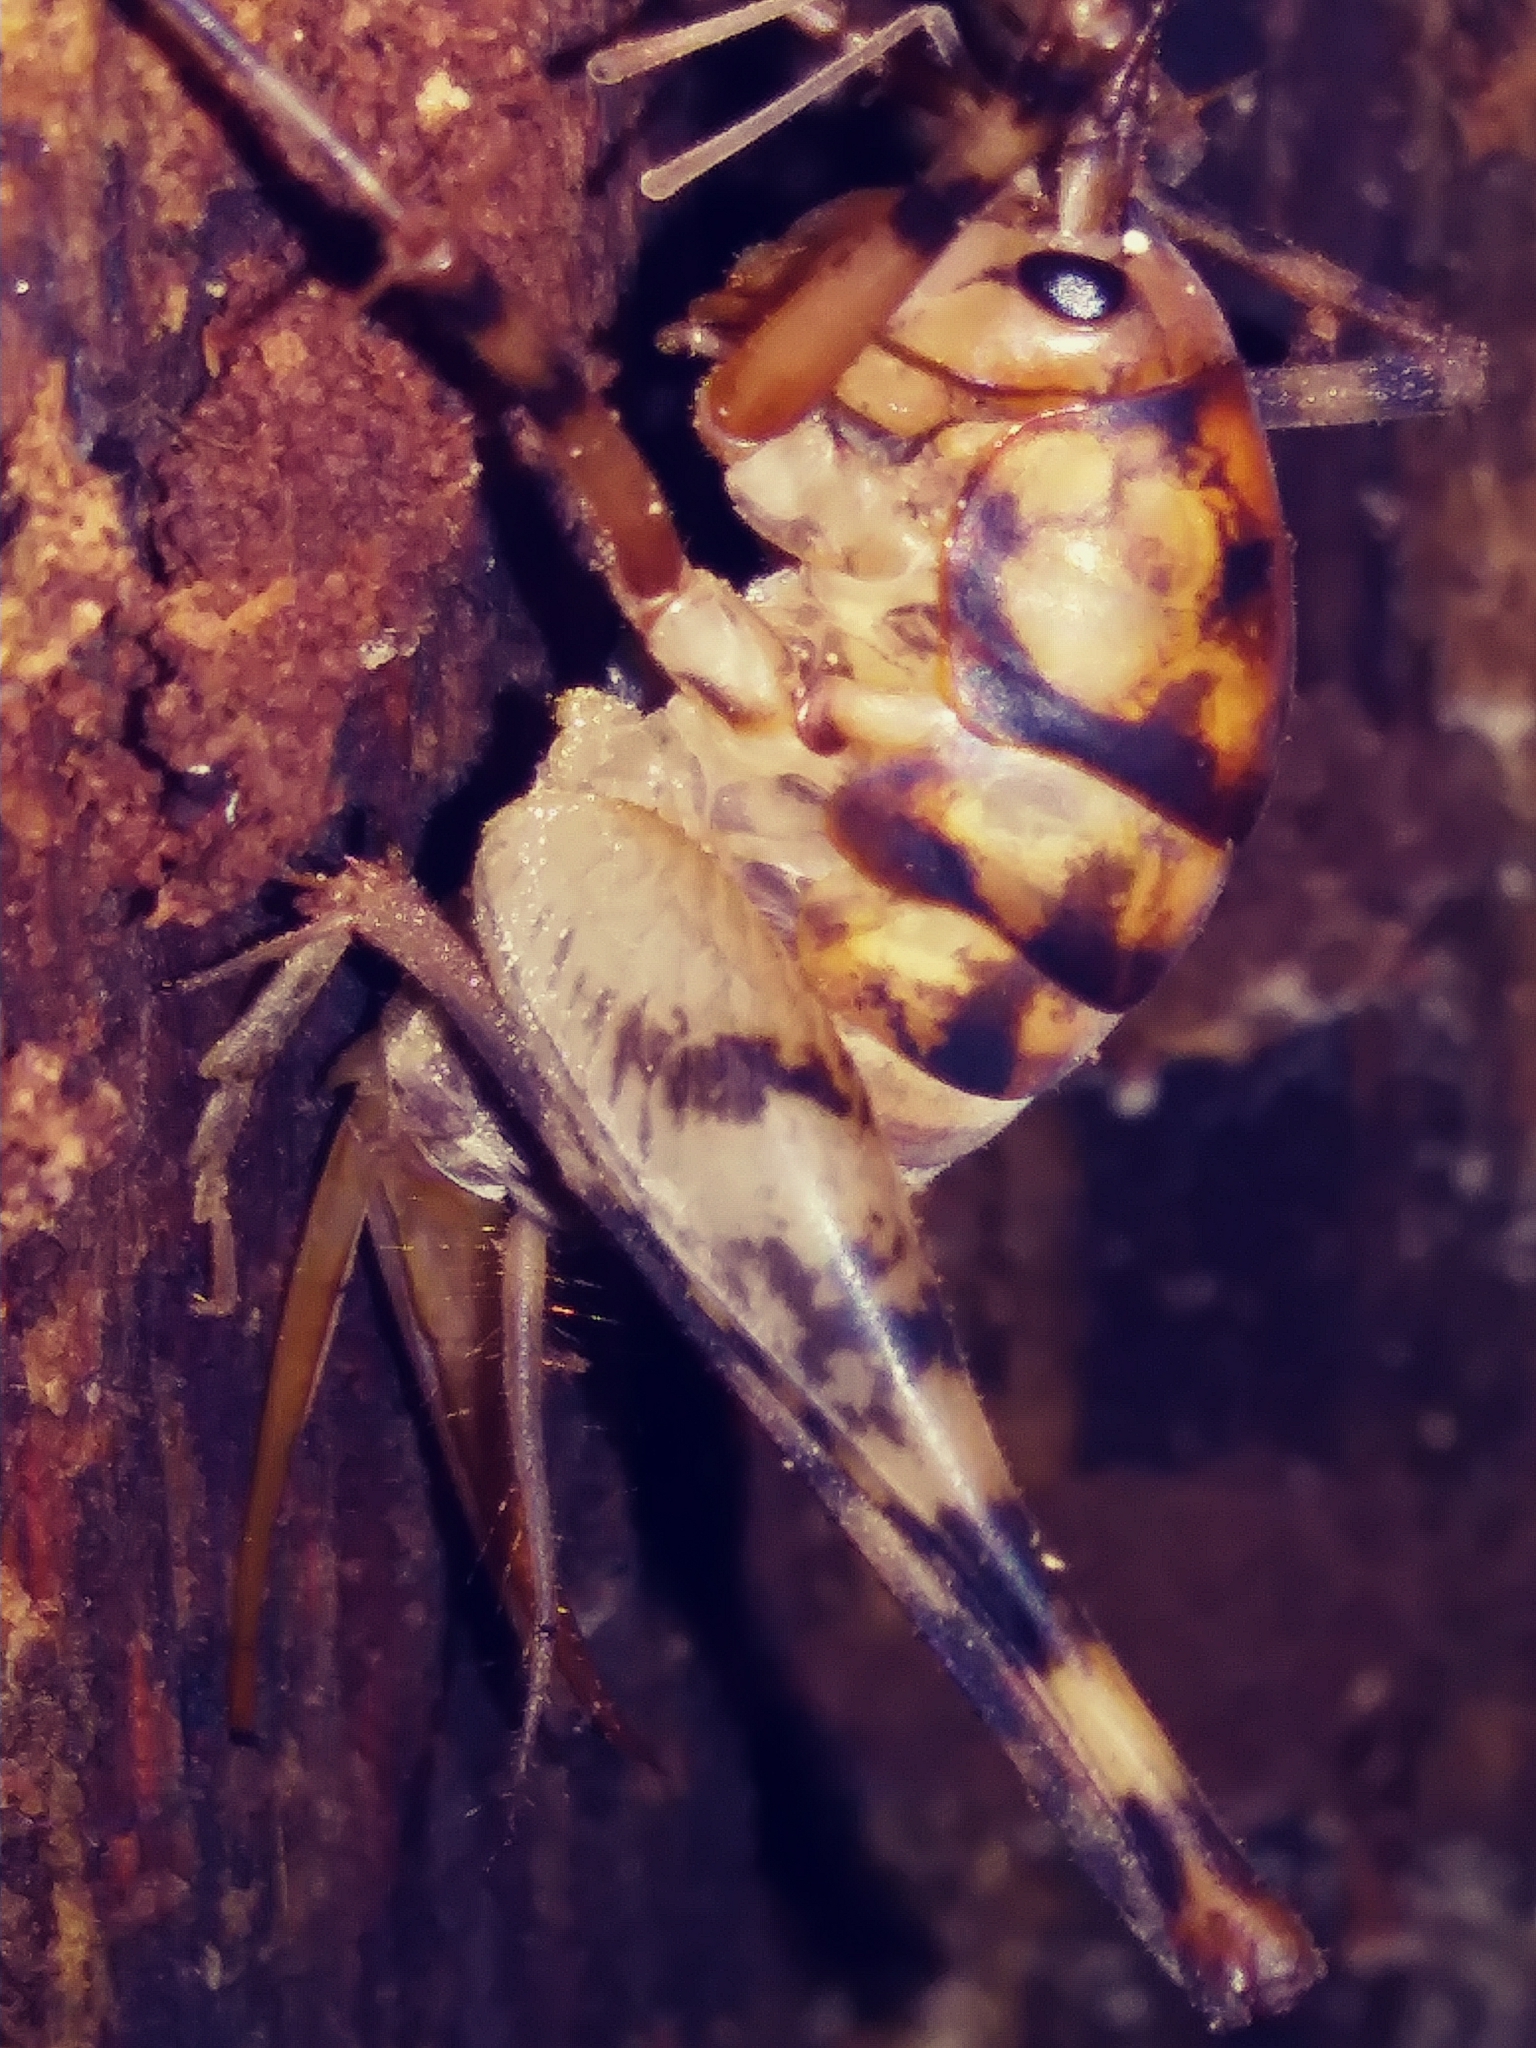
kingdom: Animalia
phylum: Arthropoda
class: Insecta
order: Orthoptera
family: Rhaphidophoridae
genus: Tachycines
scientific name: Tachycines asynamorus
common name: Greenhouse camel cricket
